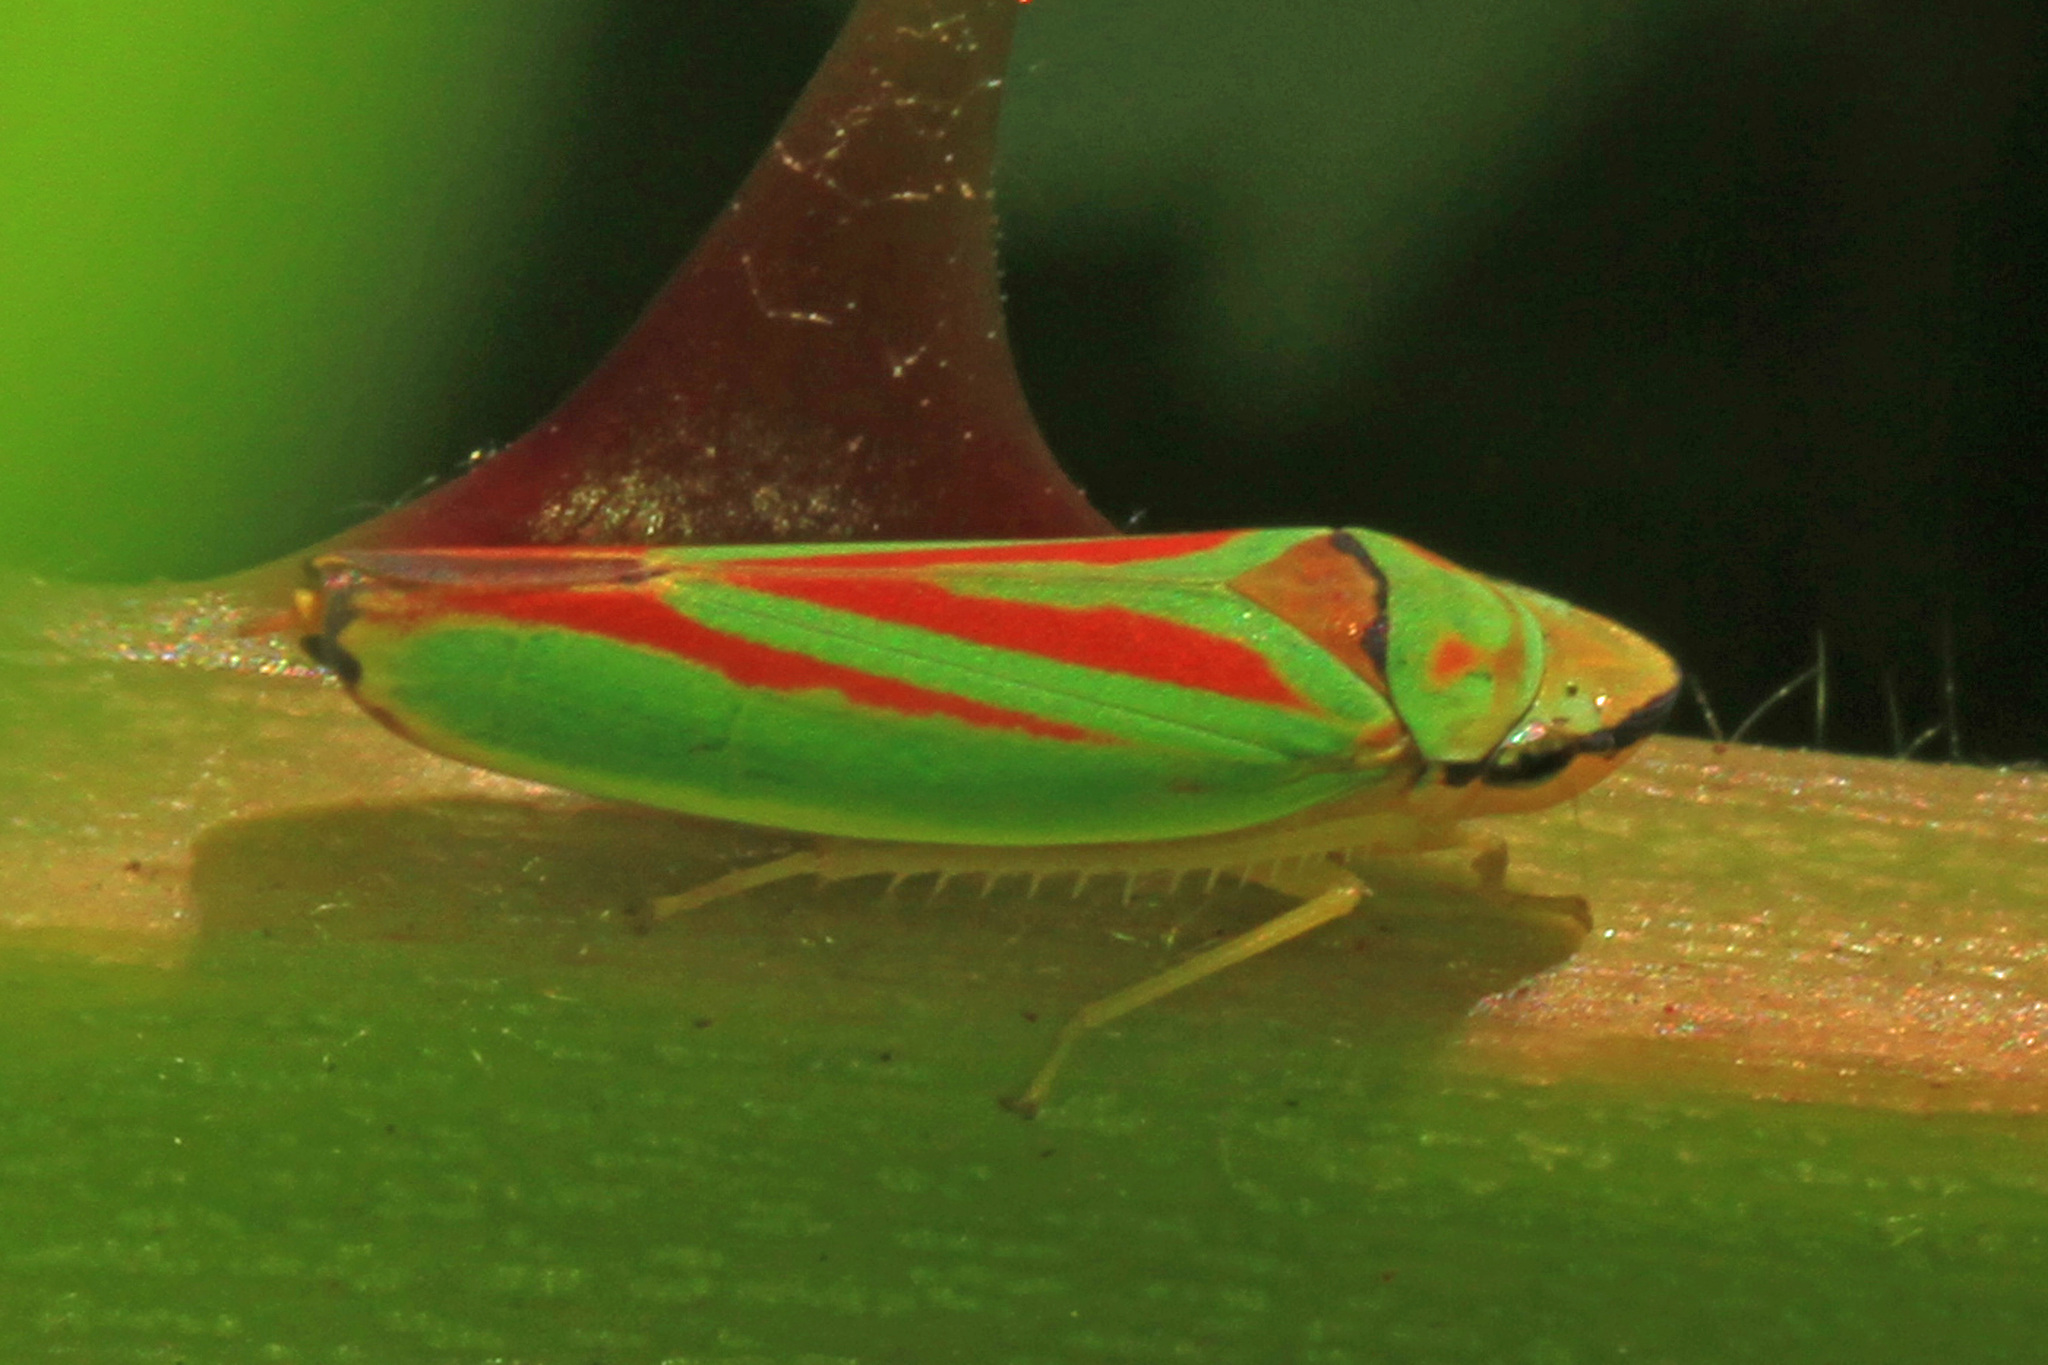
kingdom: Animalia
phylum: Arthropoda
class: Insecta
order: Hemiptera
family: Cicadellidae
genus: Graphocephala
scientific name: Graphocephala fennahi
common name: Rhododendron leafhopper
